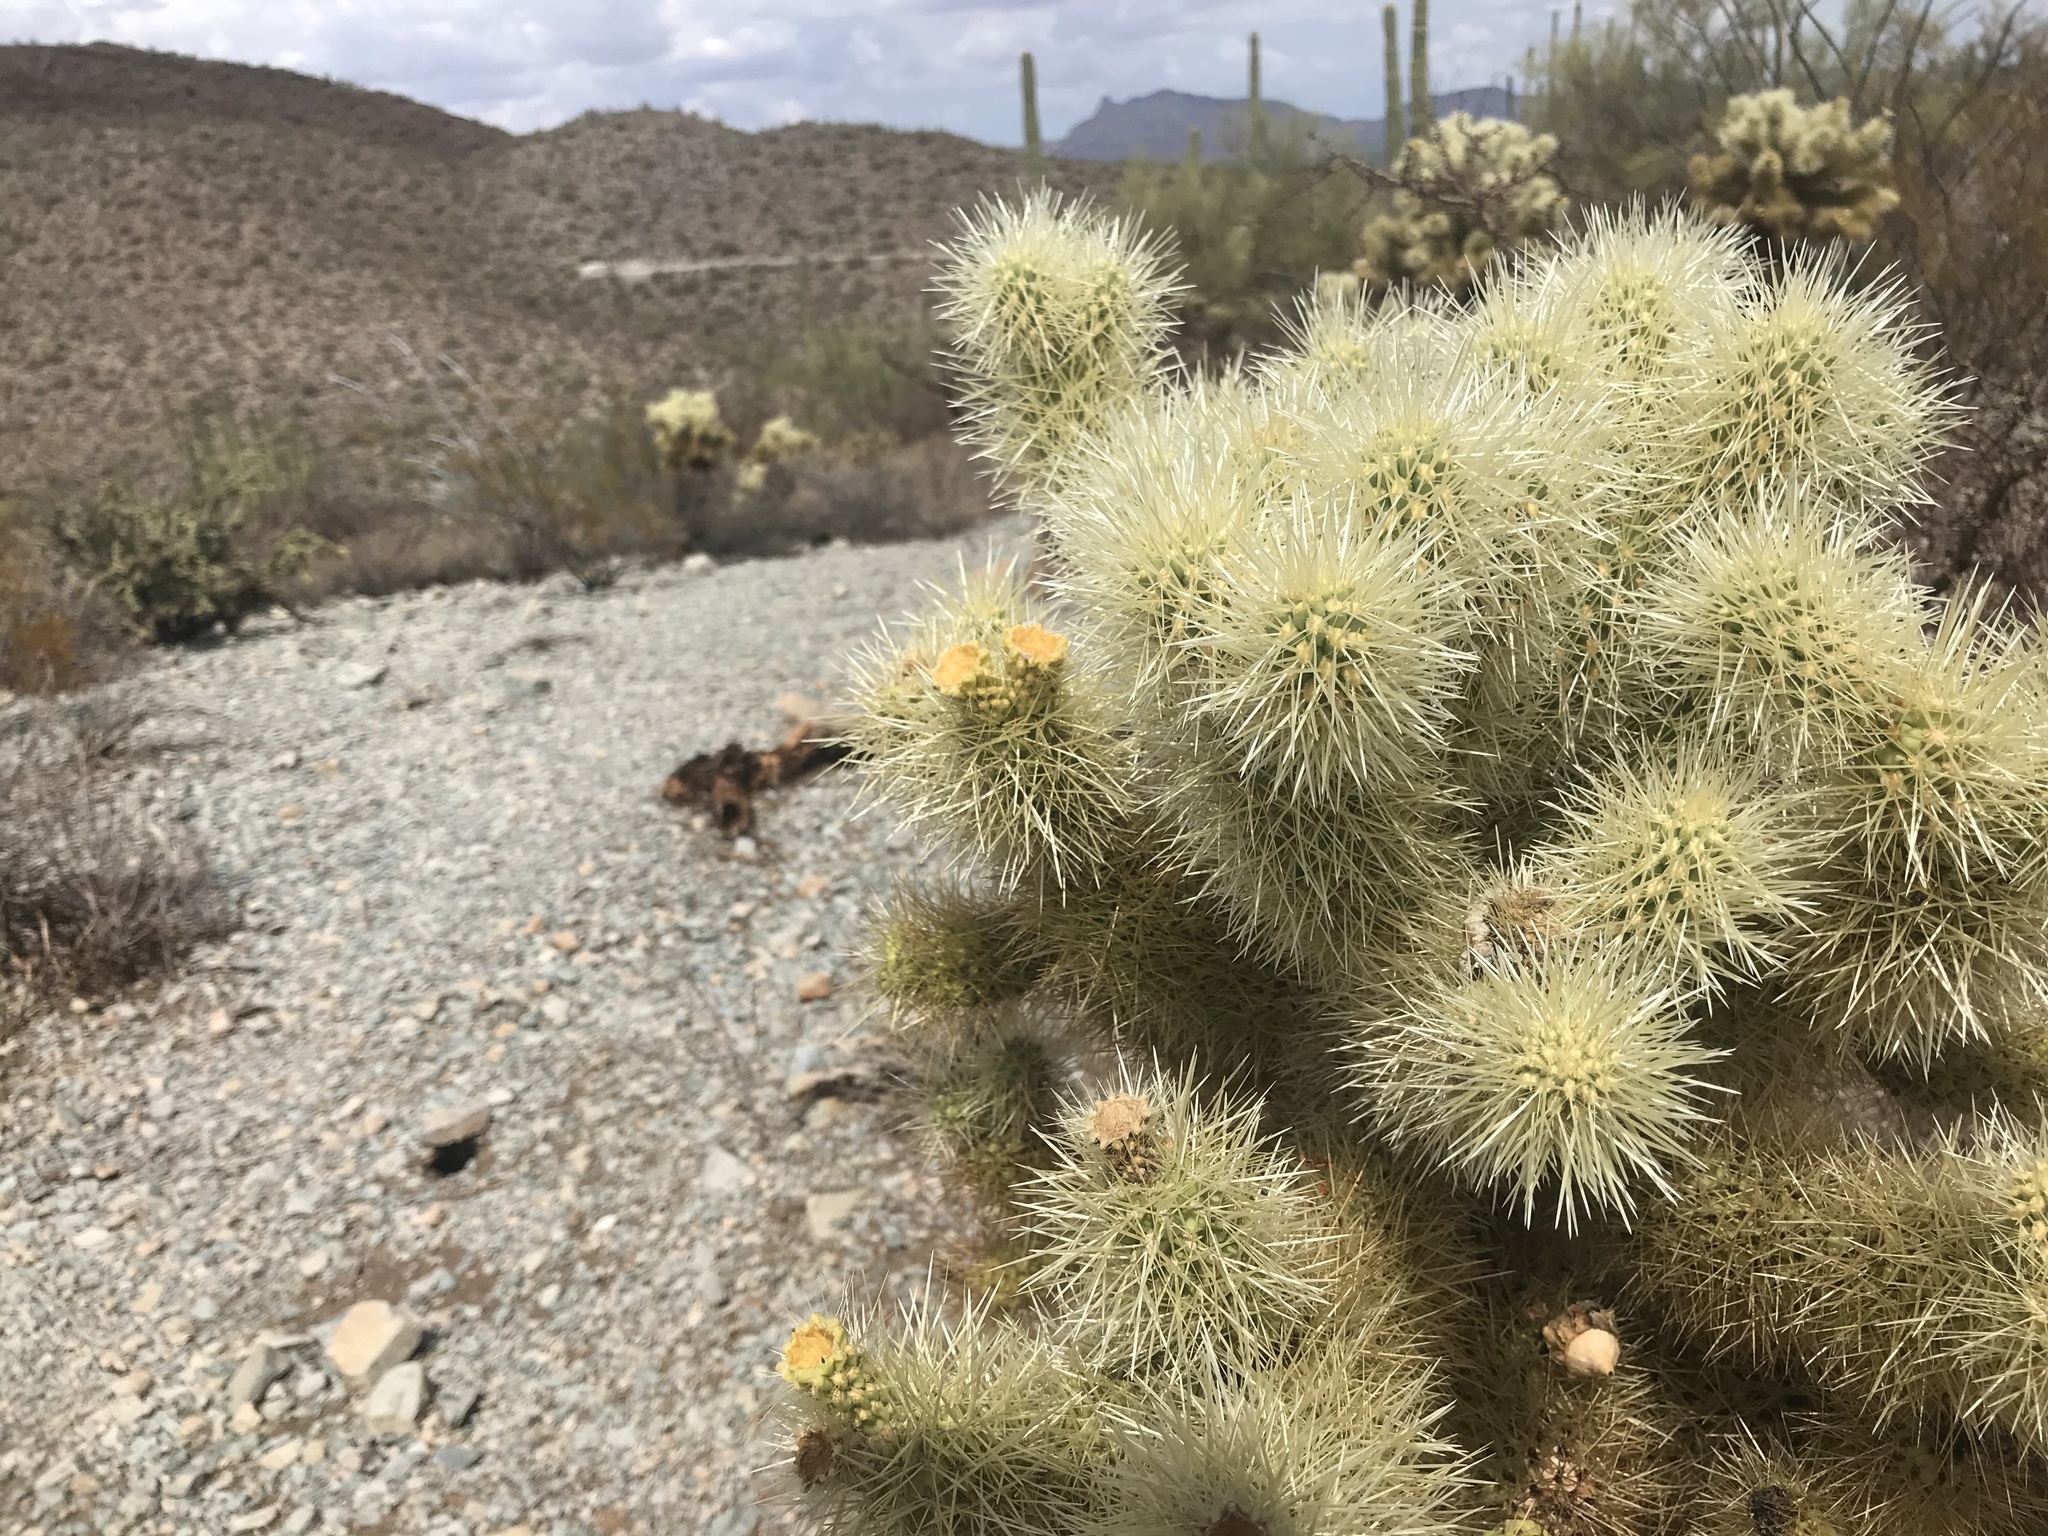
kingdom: Plantae
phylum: Tracheophyta
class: Magnoliopsida
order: Caryophyllales
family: Cactaceae
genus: Cylindropuntia
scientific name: Cylindropuntia fosbergii
